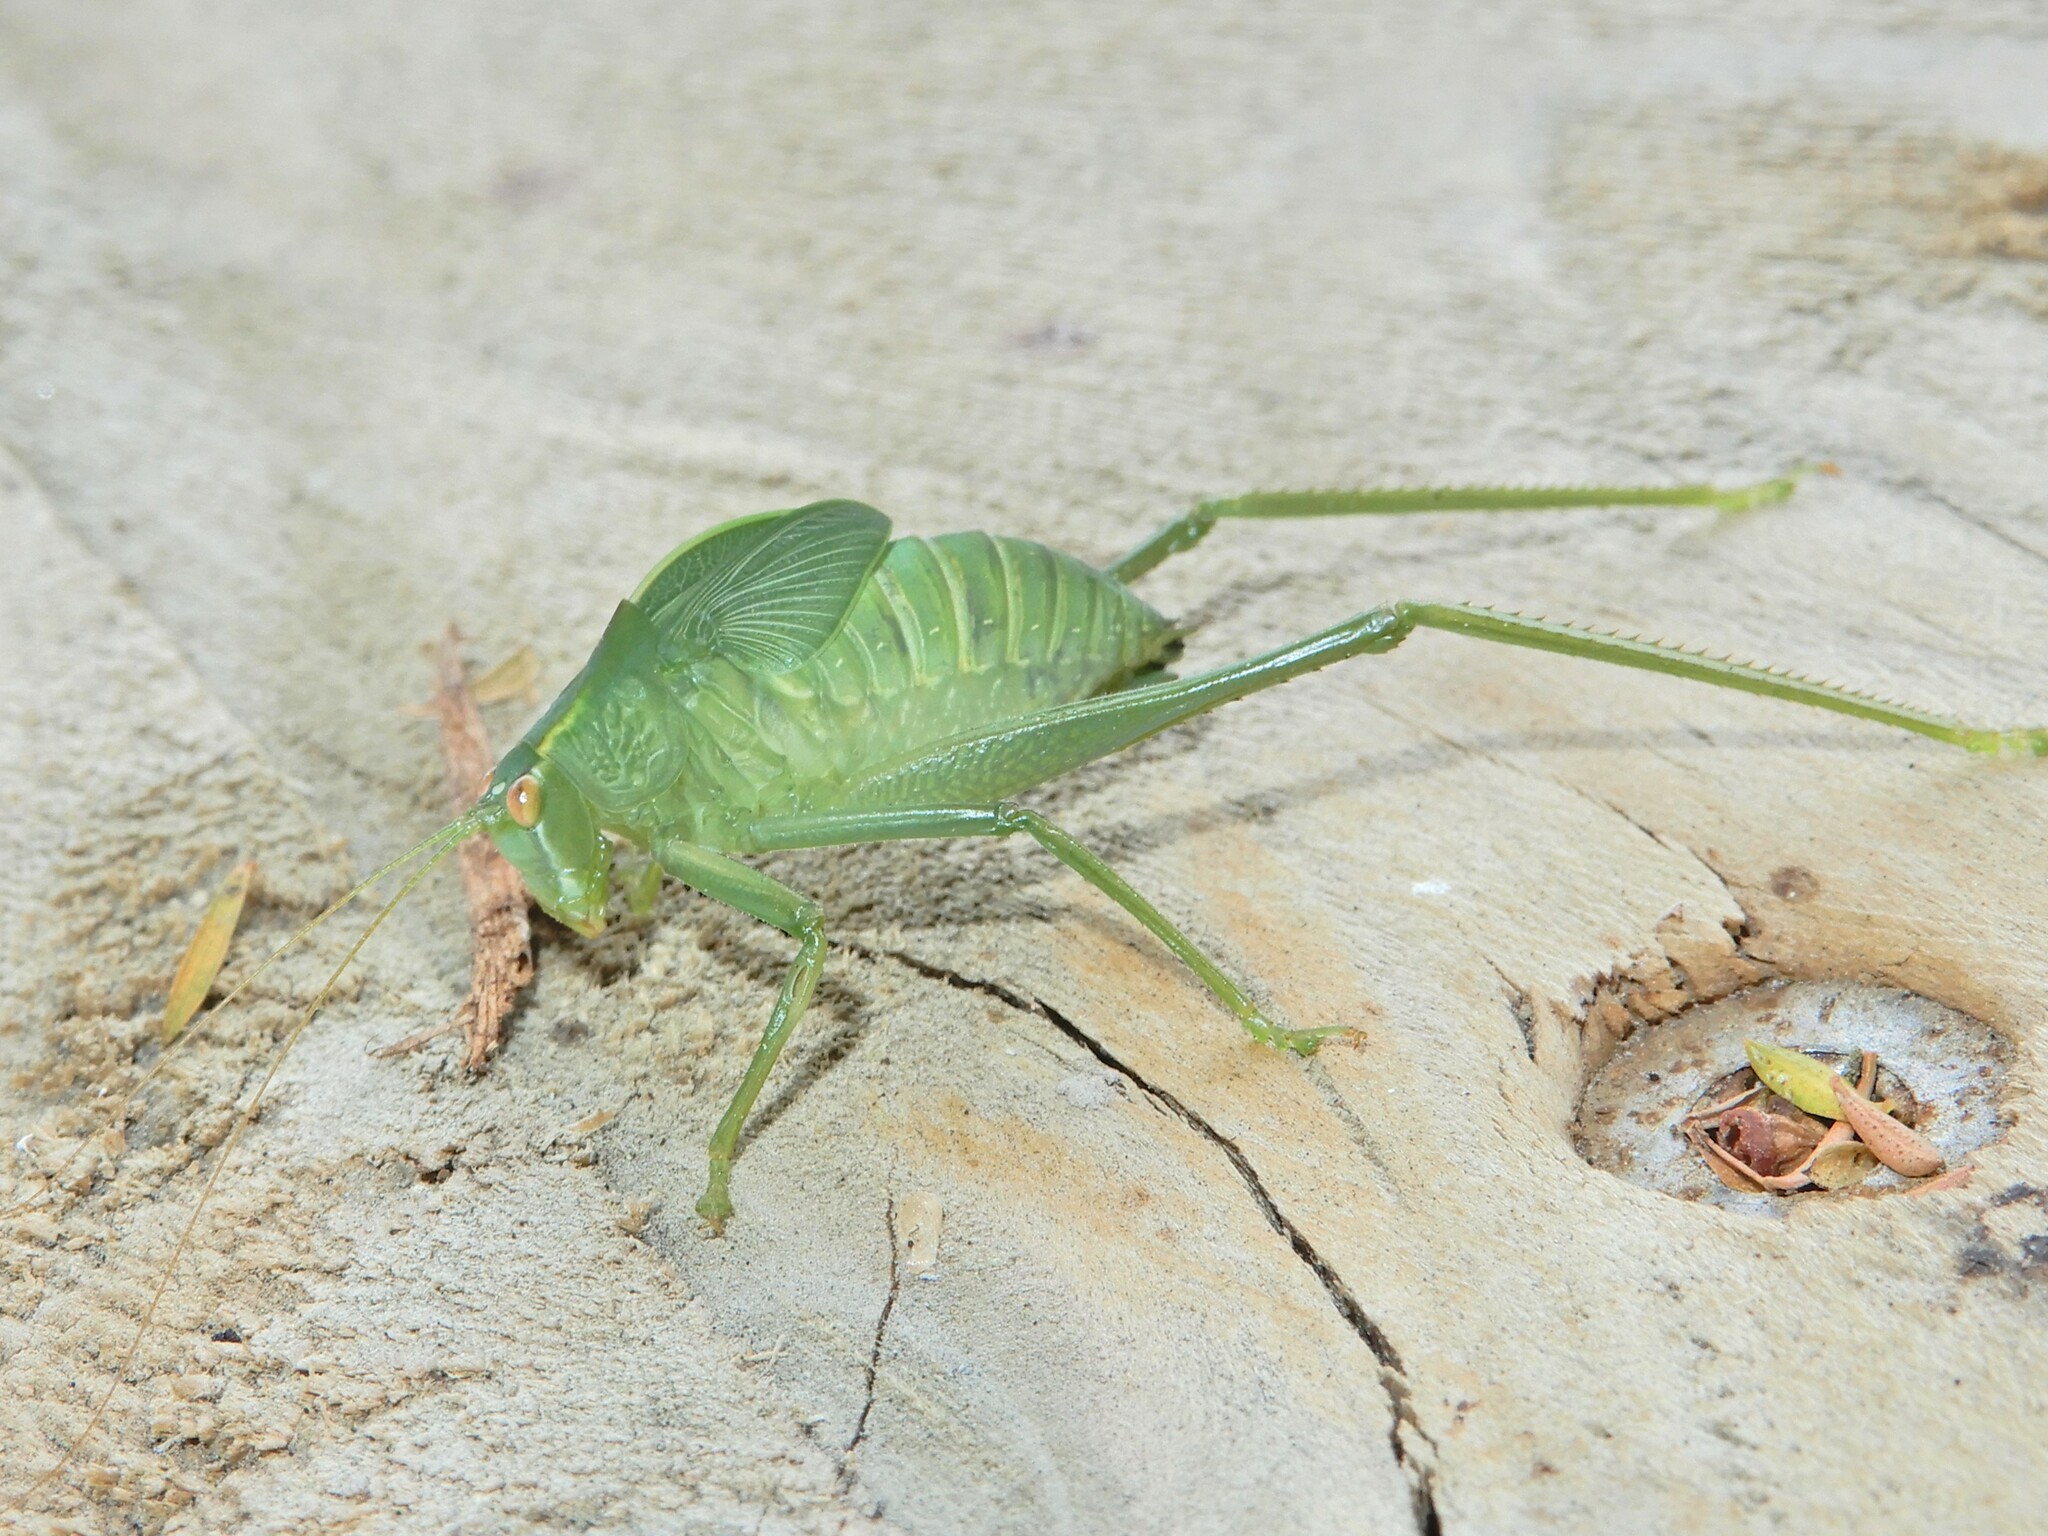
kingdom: Animalia
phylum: Arthropoda
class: Insecta
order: Orthoptera
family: Tettigoniidae
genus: Caedicia
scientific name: Caedicia simplex
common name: Common garden katydid
